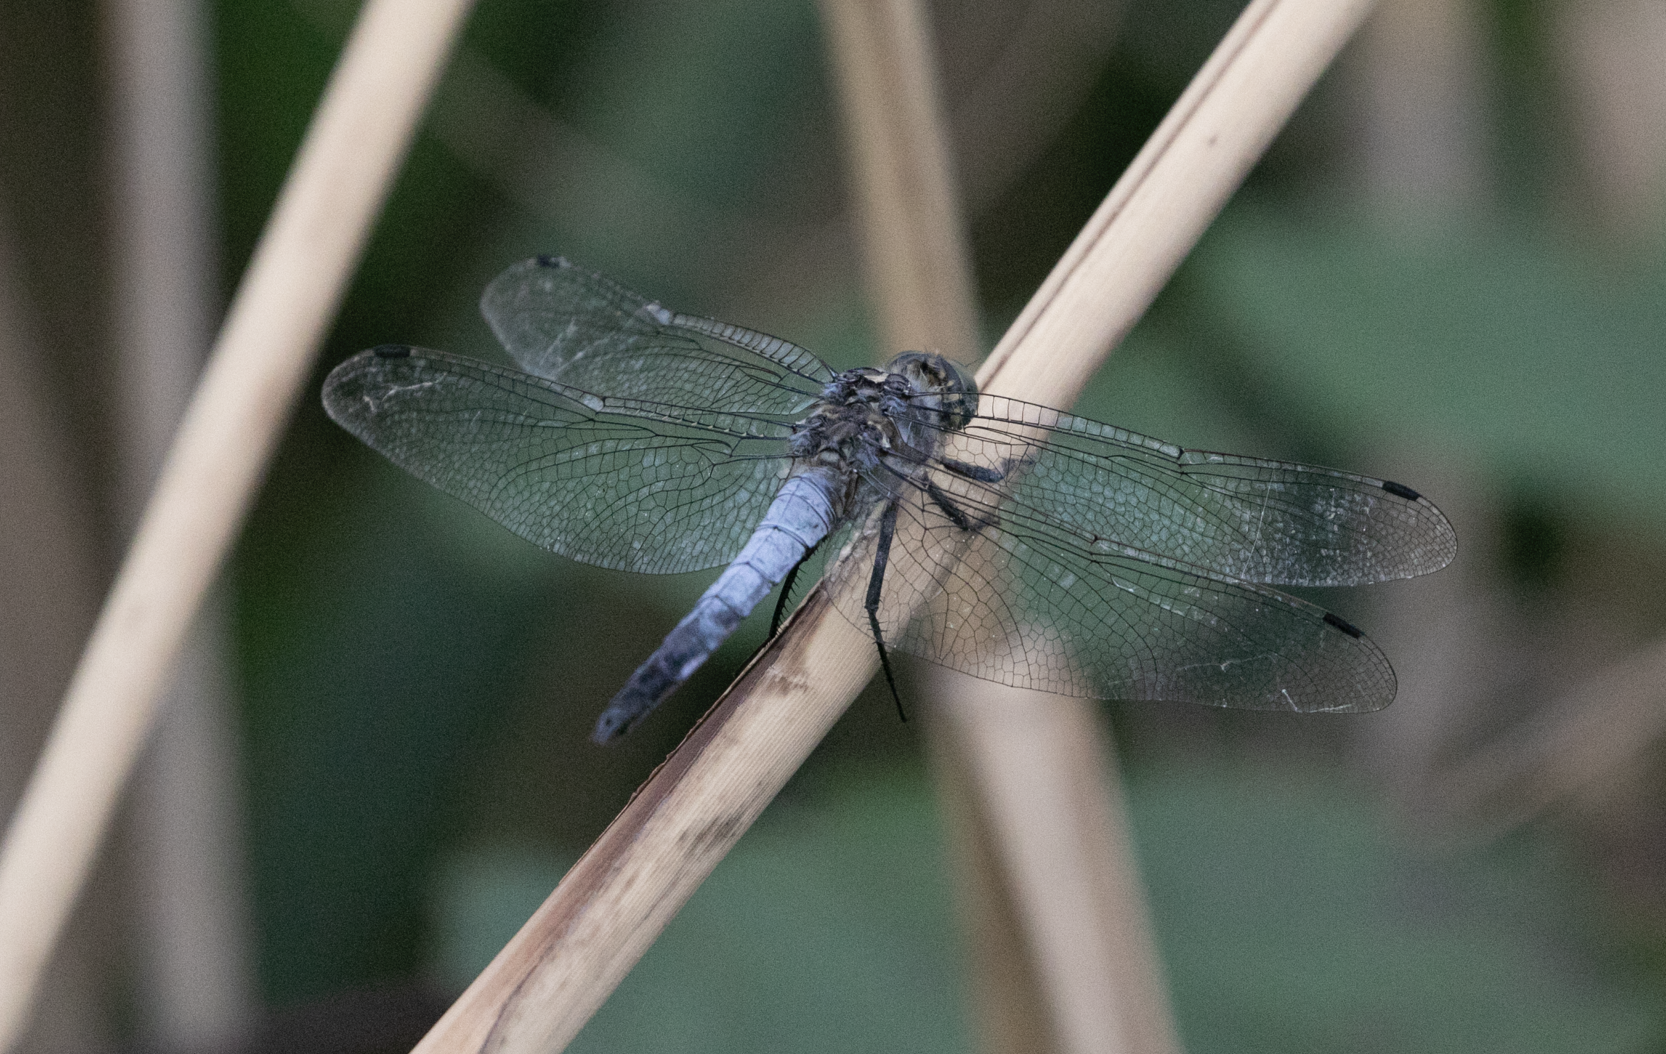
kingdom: Animalia
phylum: Arthropoda
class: Insecta
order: Odonata
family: Libellulidae
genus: Orthetrum
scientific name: Orthetrum cancellatum
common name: Black-tailed skimmer
